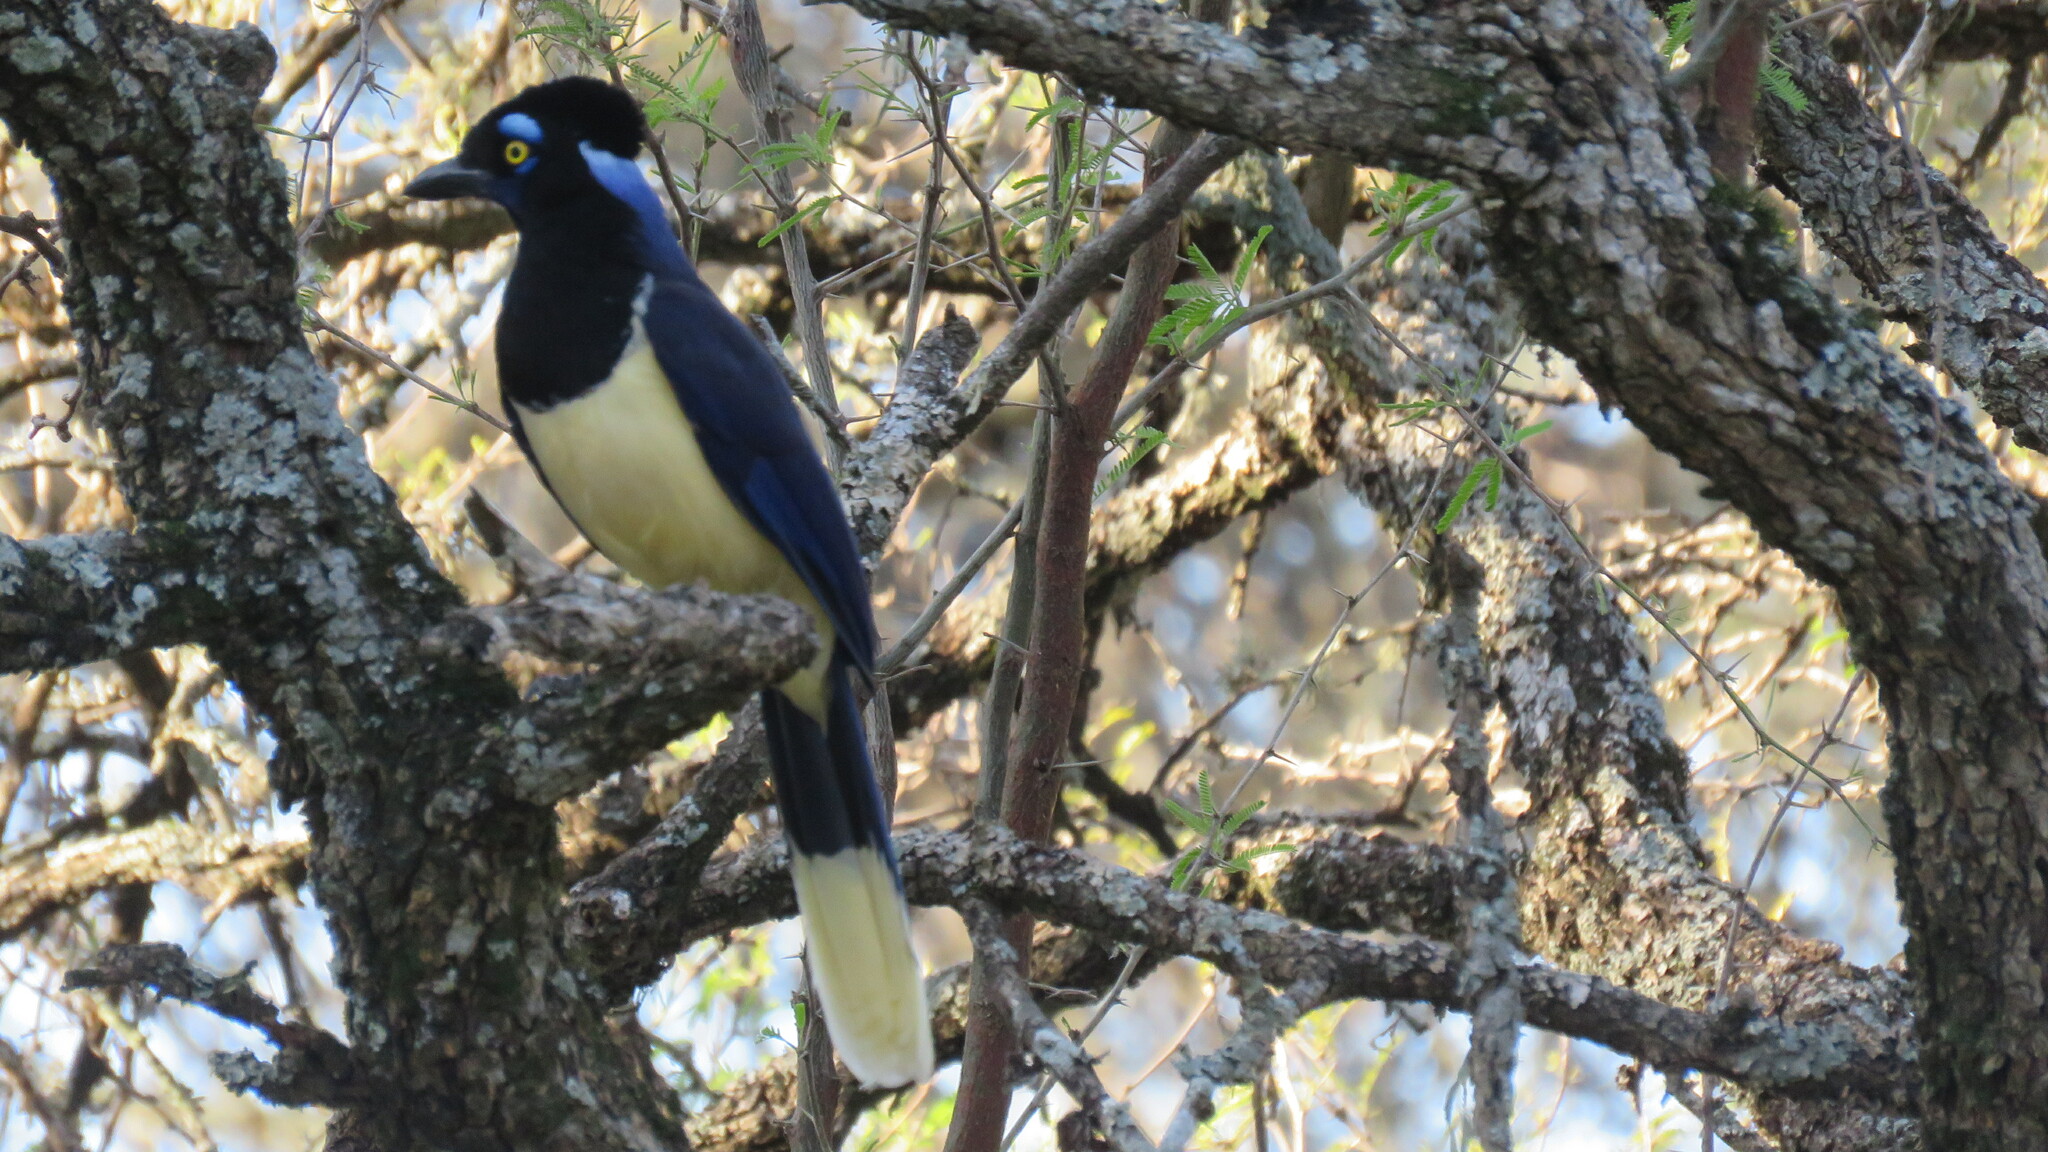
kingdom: Animalia
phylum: Chordata
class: Aves
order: Passeriformes
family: Corvidae
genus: Cyanocorax
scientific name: Cyanocorax chrysops
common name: Plush-crested jay
